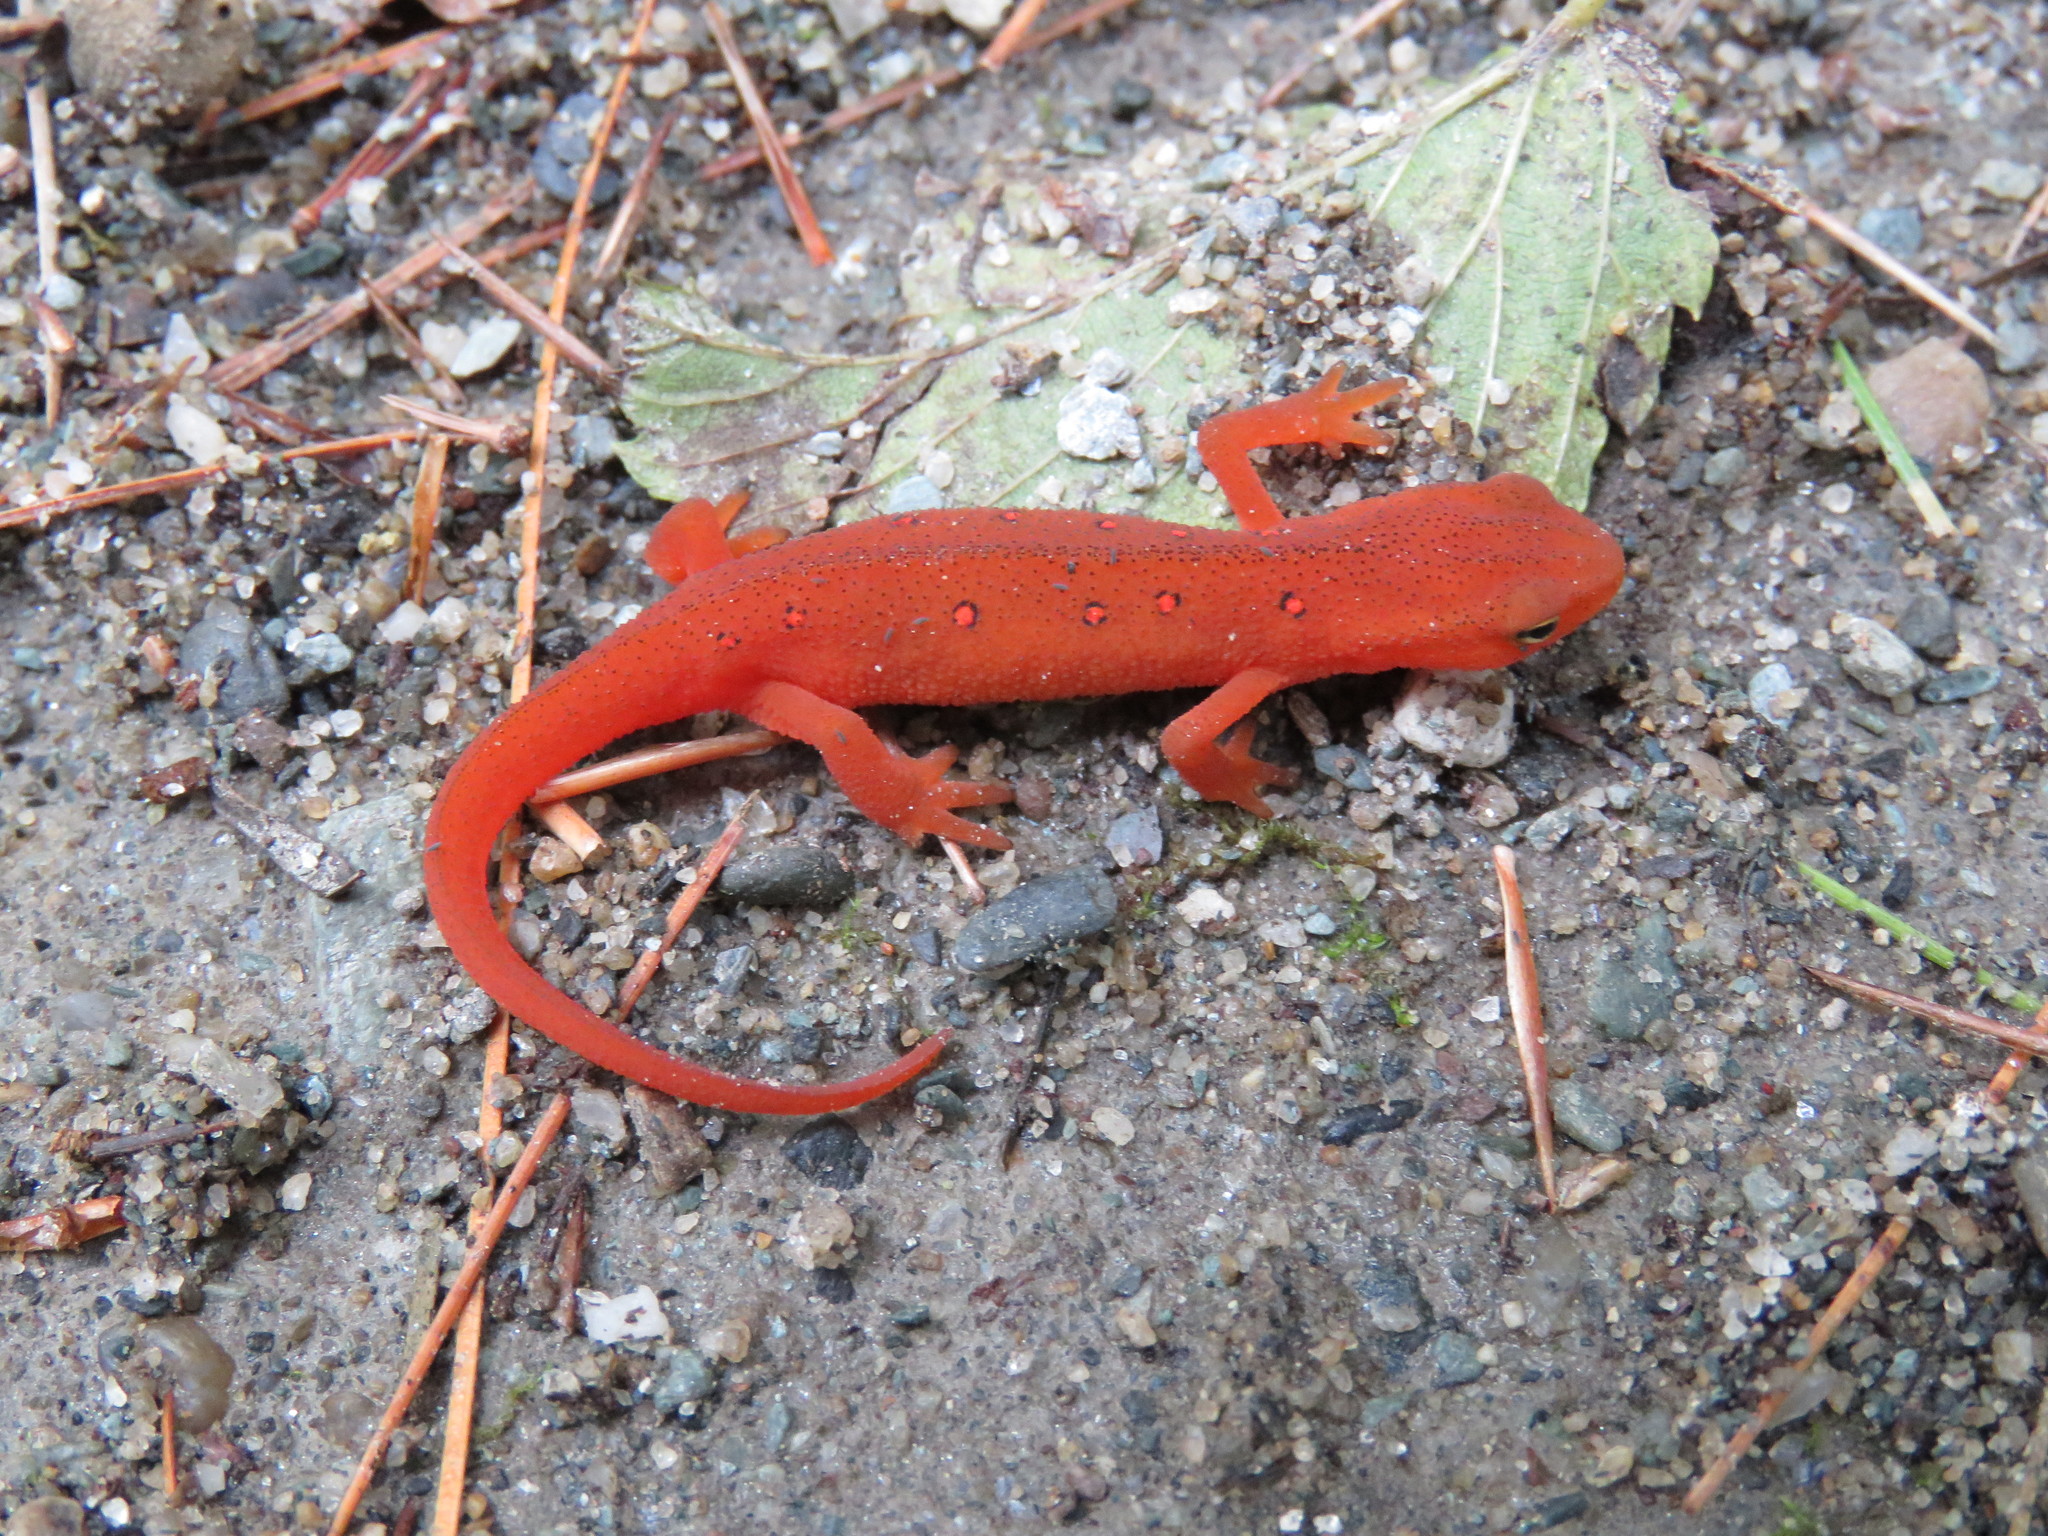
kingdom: Animalia
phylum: Chordata
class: Amphibia
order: Caudata
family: Salamandridae
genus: Notophthalmus
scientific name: Notophthalmus viridescens
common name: Eastern newt
